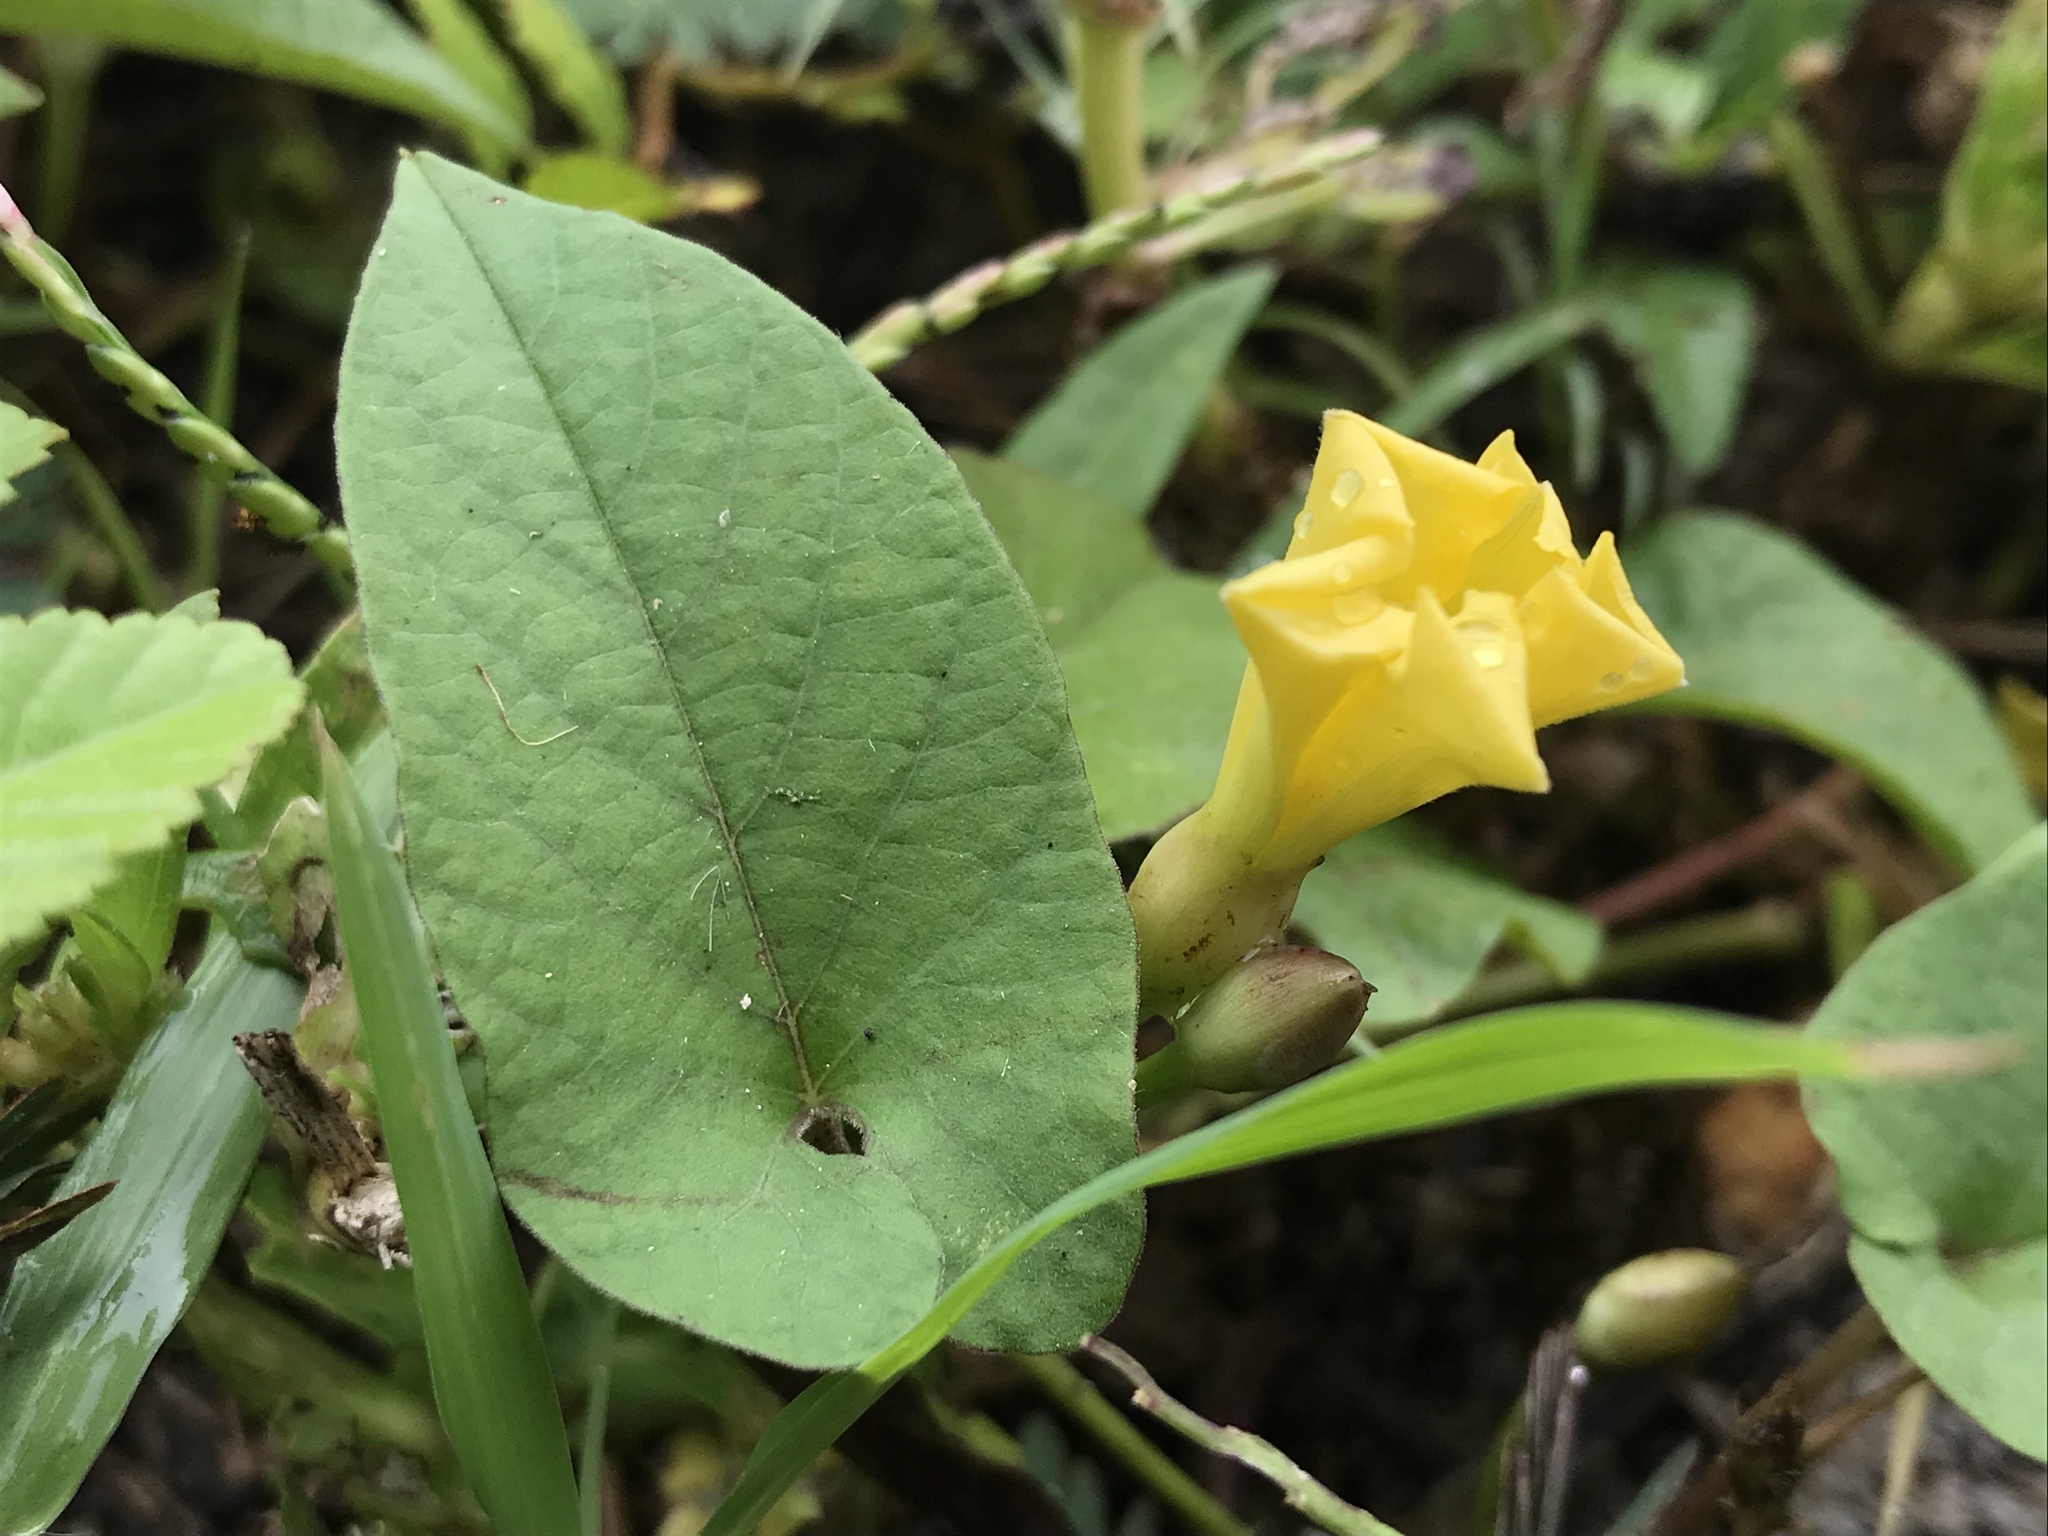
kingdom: Plantae
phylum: Tracheophyta
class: Magnoliopsida
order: Solanales
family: Convolvulaceae
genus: Camonea
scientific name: Camonea umbellata
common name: Hogvine
